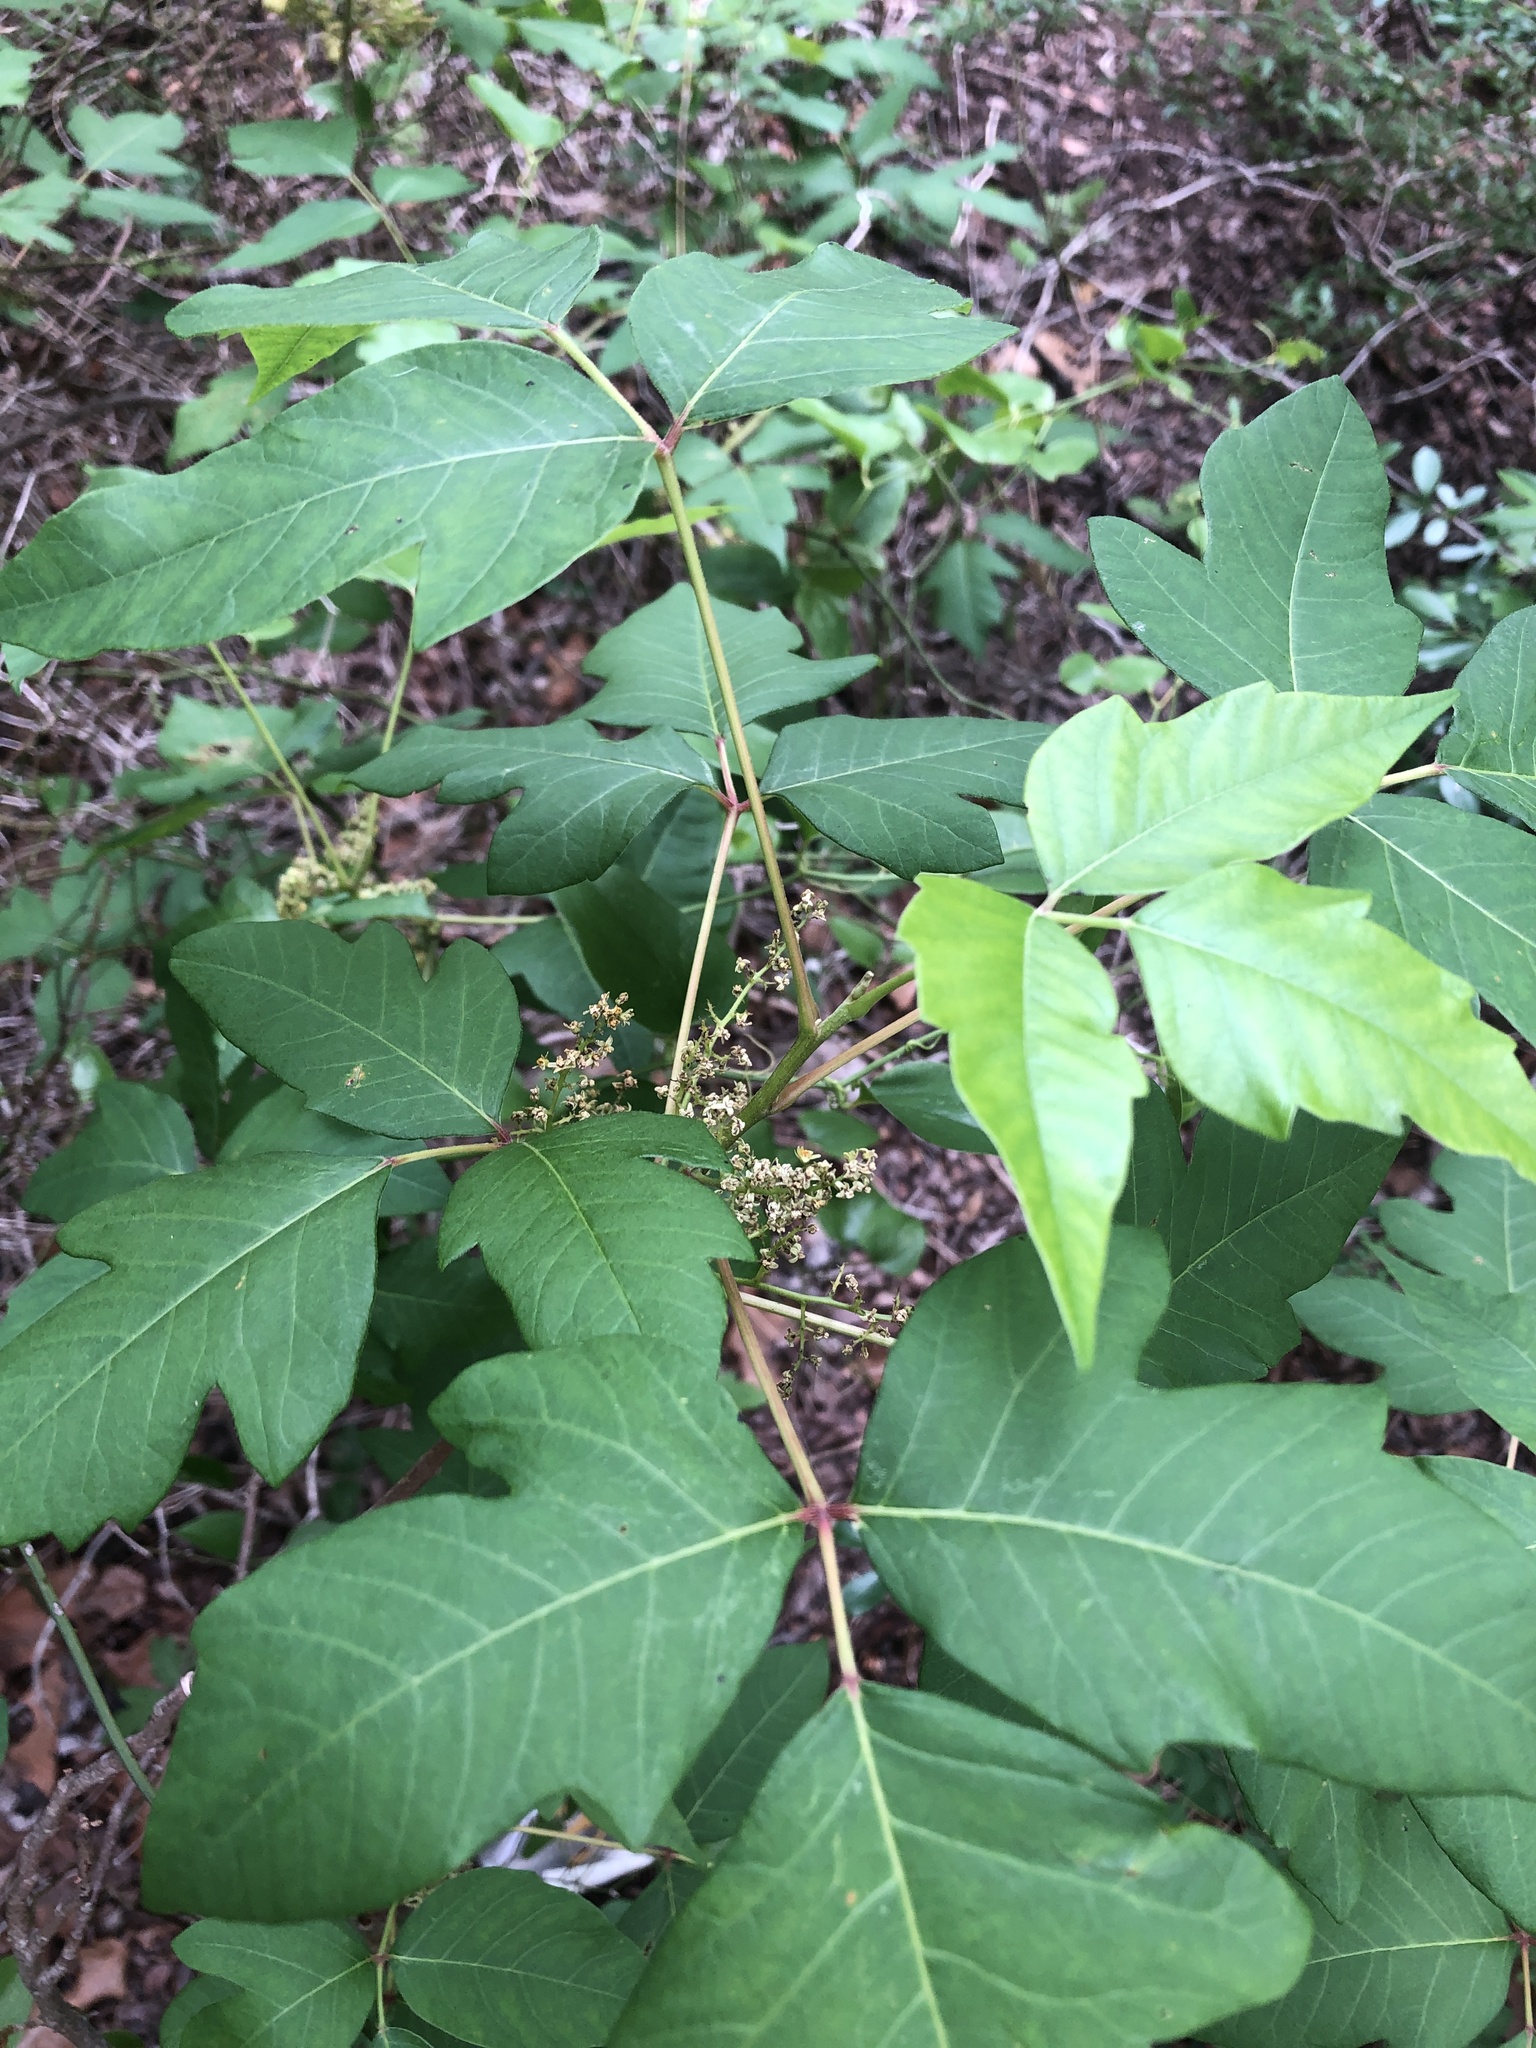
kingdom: Plantae
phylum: Tracheophyta
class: Magnoliopsida
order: Sapindales
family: Anacardiaceae
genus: Toxicodendron
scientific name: Toxicodendron radicans
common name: Poison ivy
